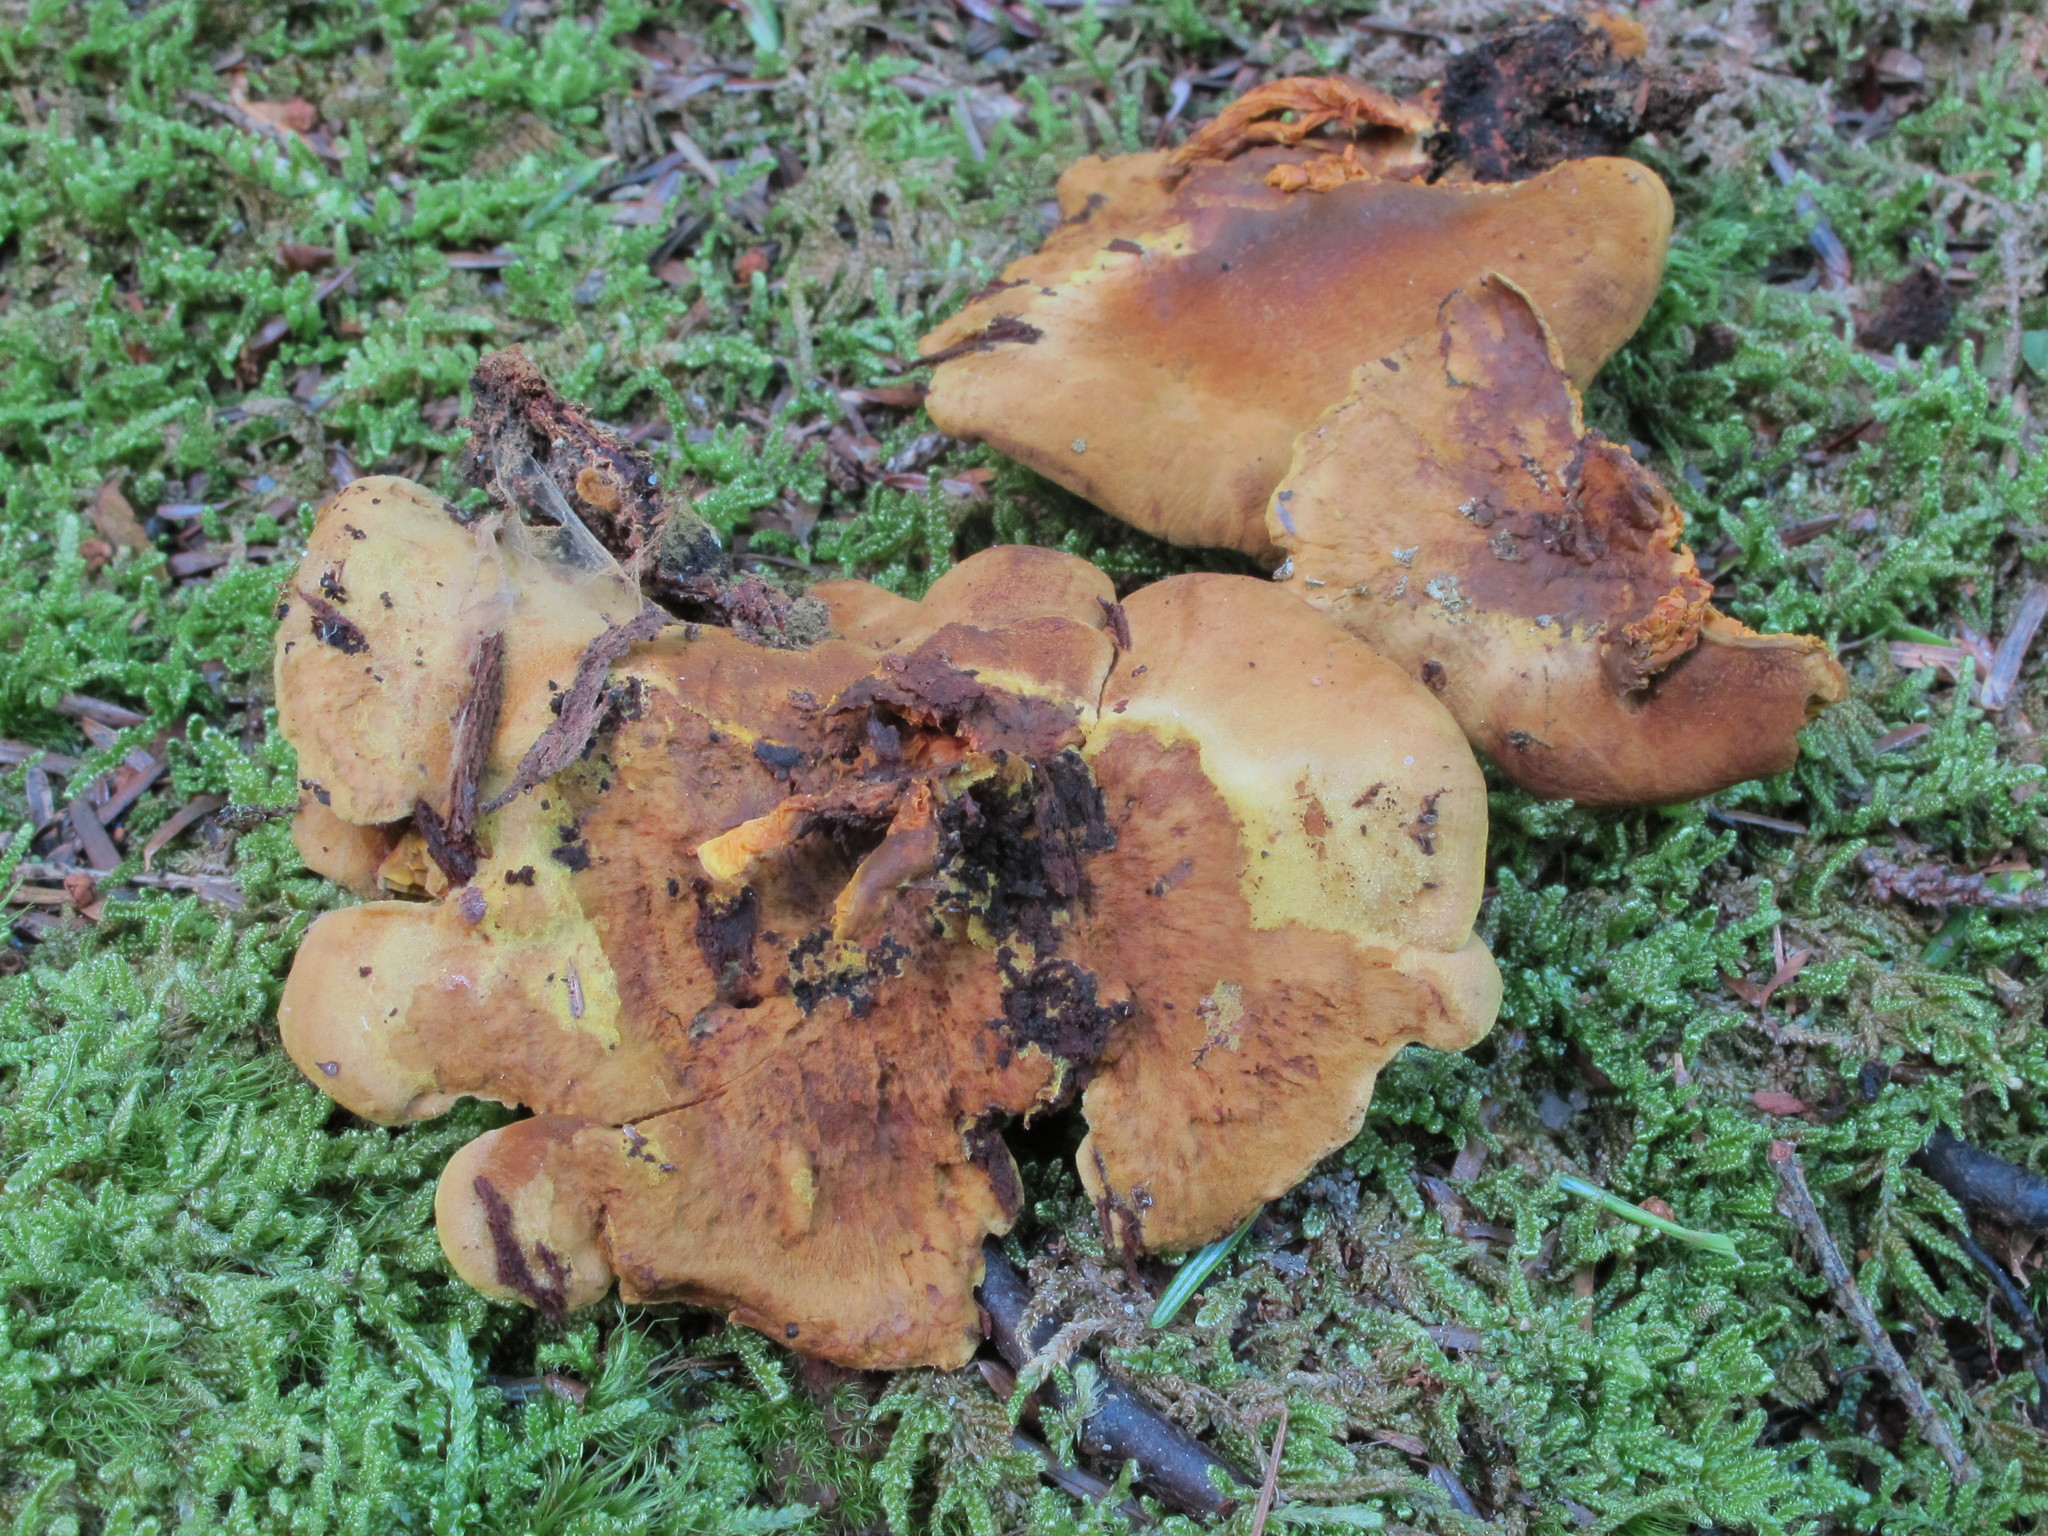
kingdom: Fungi
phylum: Basidiomycota
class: Agaricomycetes
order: Boletales
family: Paxillaceae
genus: Meiorganum
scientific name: Meiorganum curtisii
